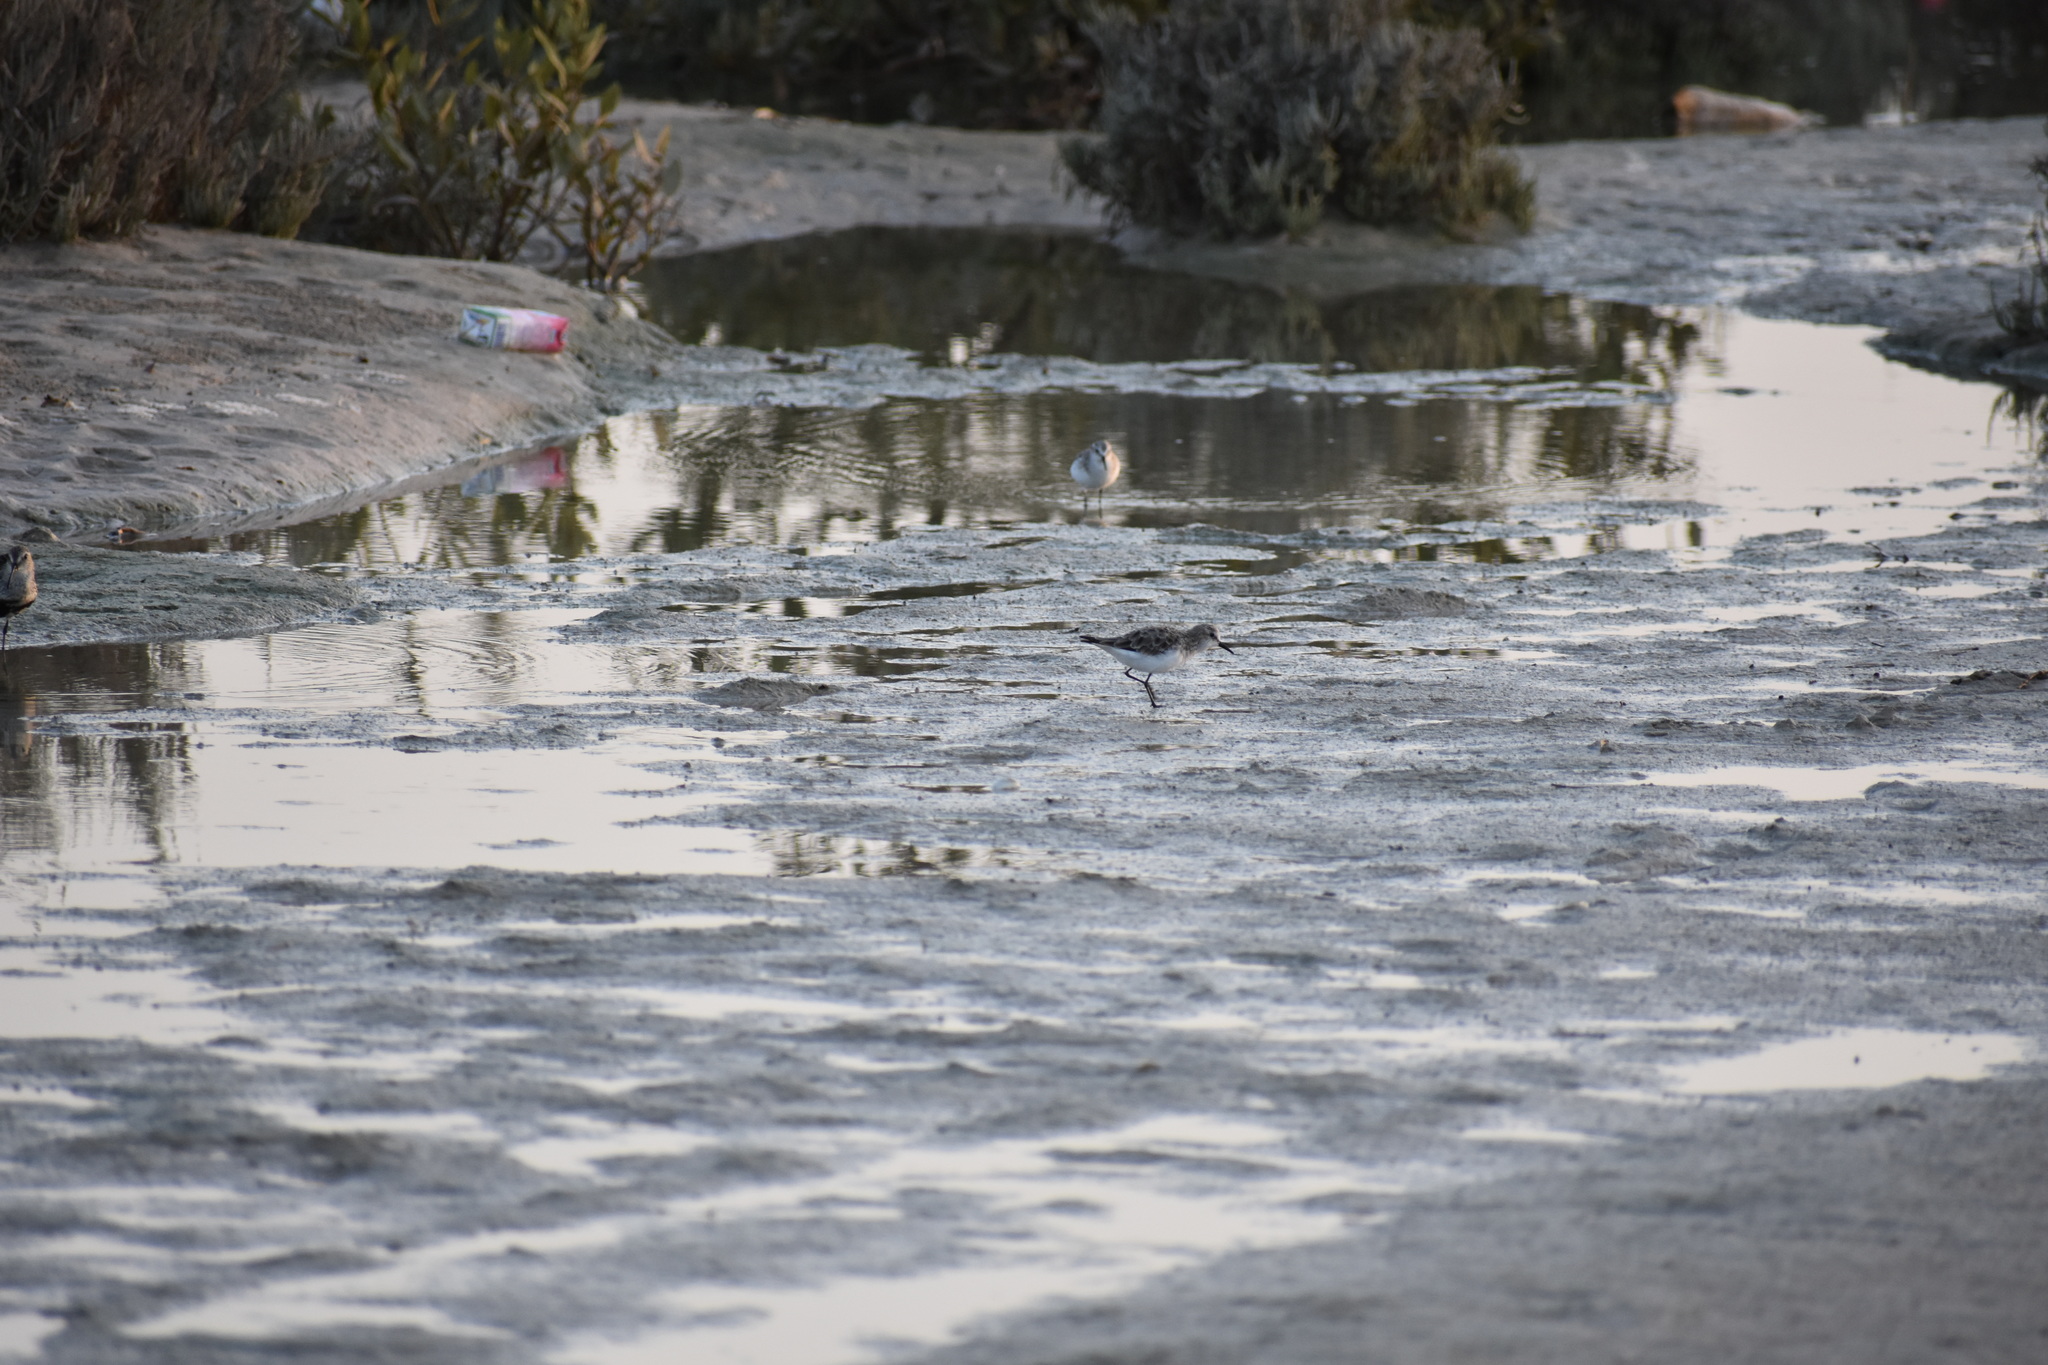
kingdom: Animalia
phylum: Chordata
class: Aves
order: Charadriiformes
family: Scolopacidae
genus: Calidris
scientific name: Calidris minuta
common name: Little stint
